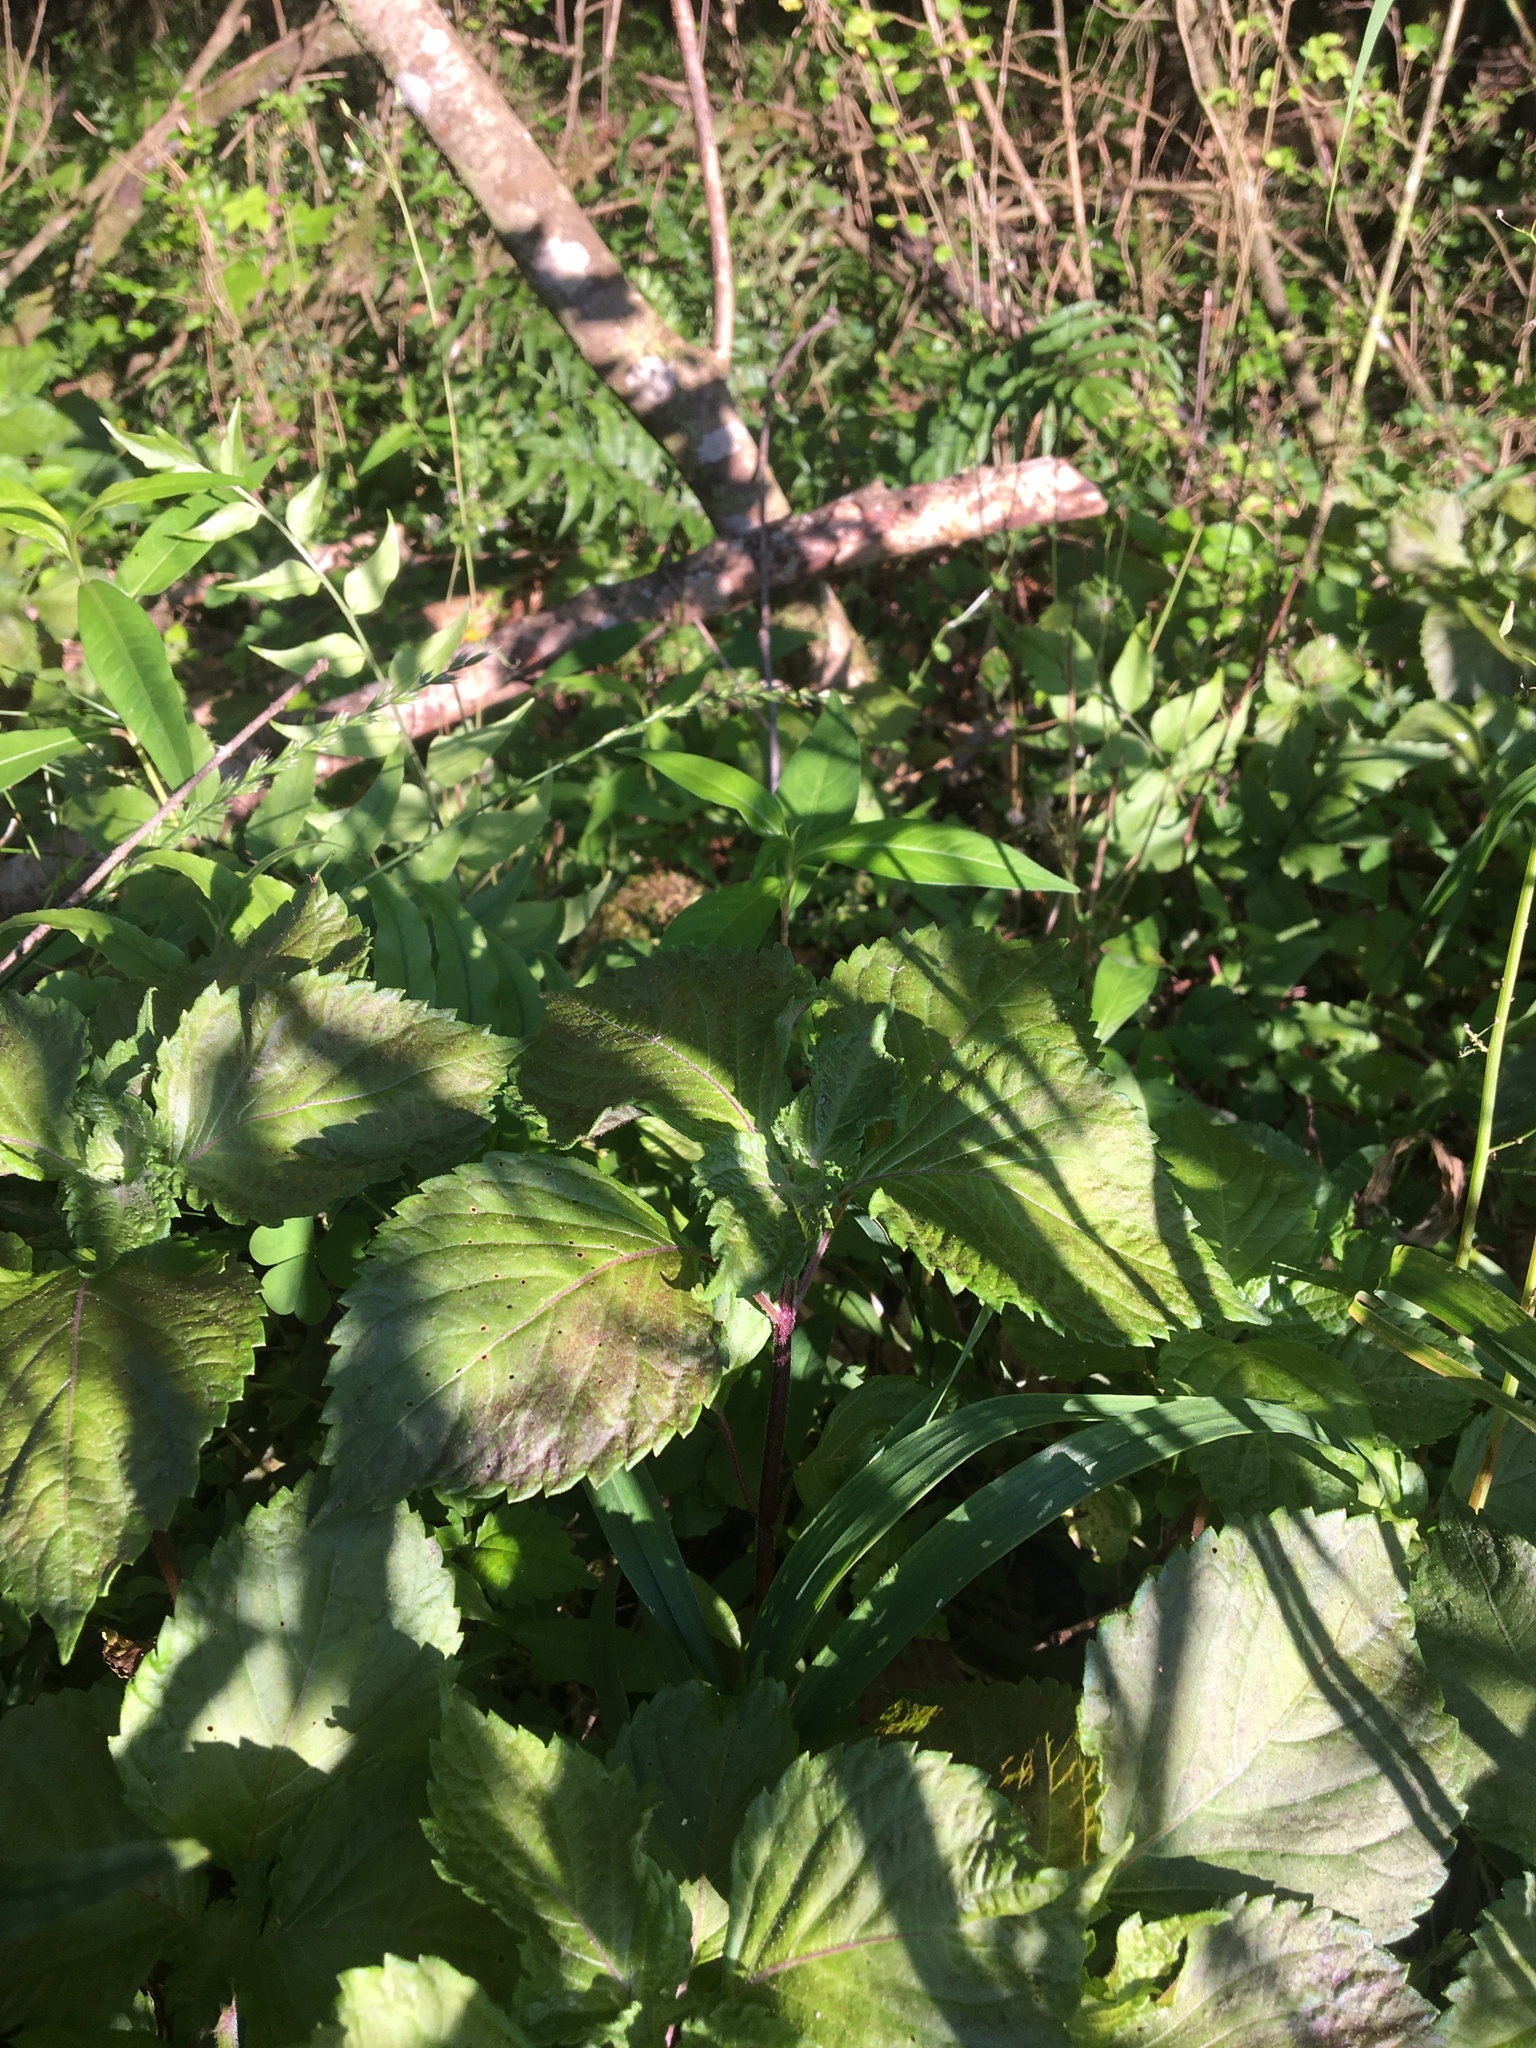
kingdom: Plantae
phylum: Tracheophyta
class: Magnoliopsida
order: Lamiales
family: Lamiaceae
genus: Perilla
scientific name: Perilla frutescens
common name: Perilla
